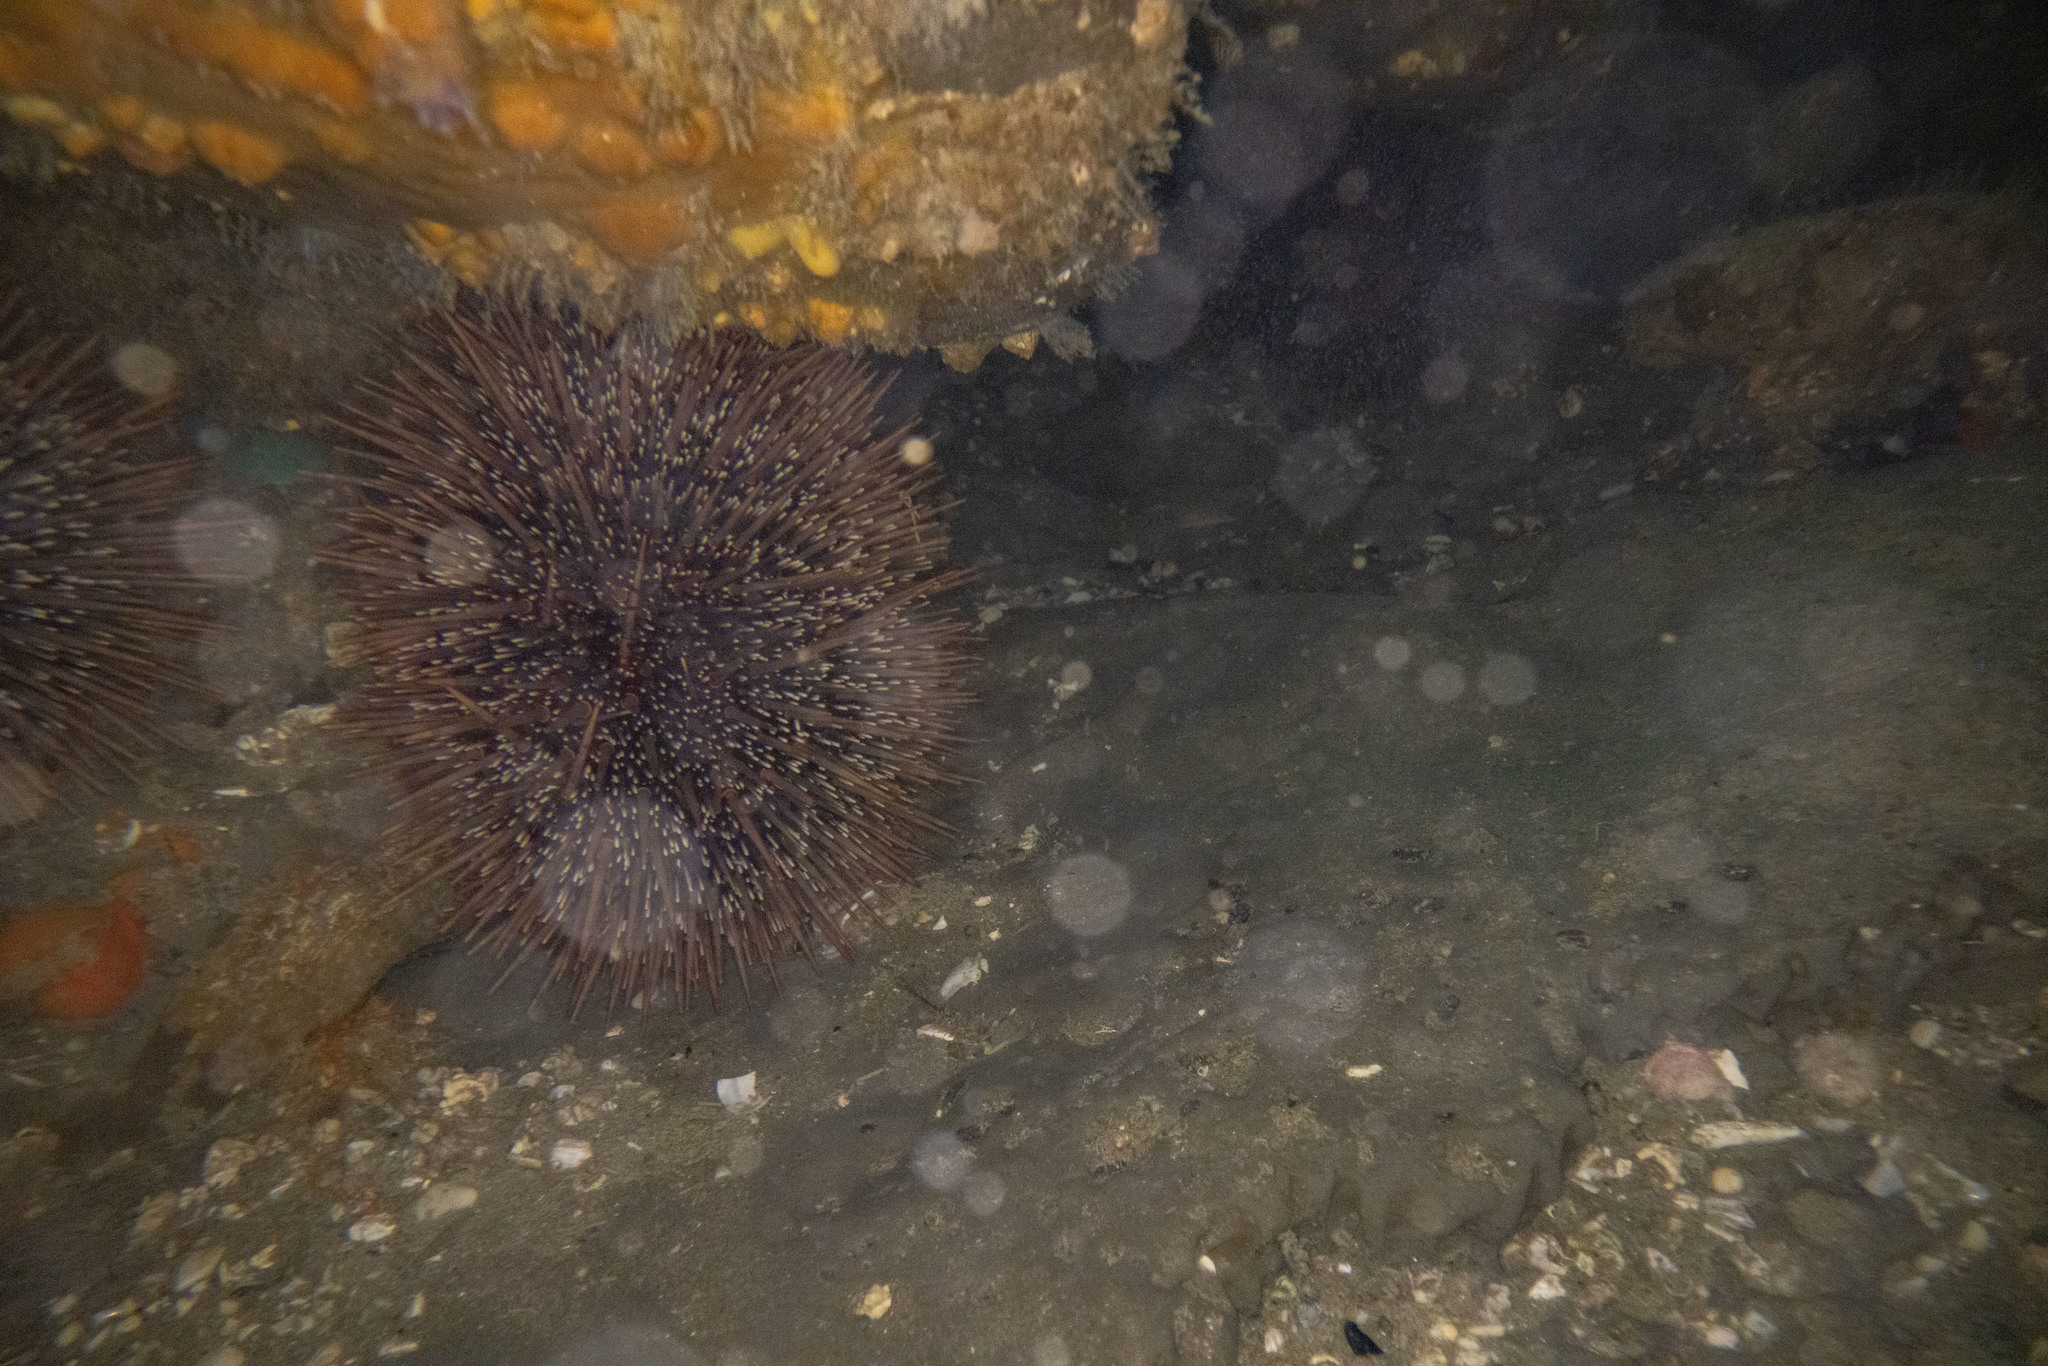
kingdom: Animalia
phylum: Echinodermata
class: Echinoidea
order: Camarodonta
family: Echinometridae
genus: Evechinus
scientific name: Evechinus chloroticus
